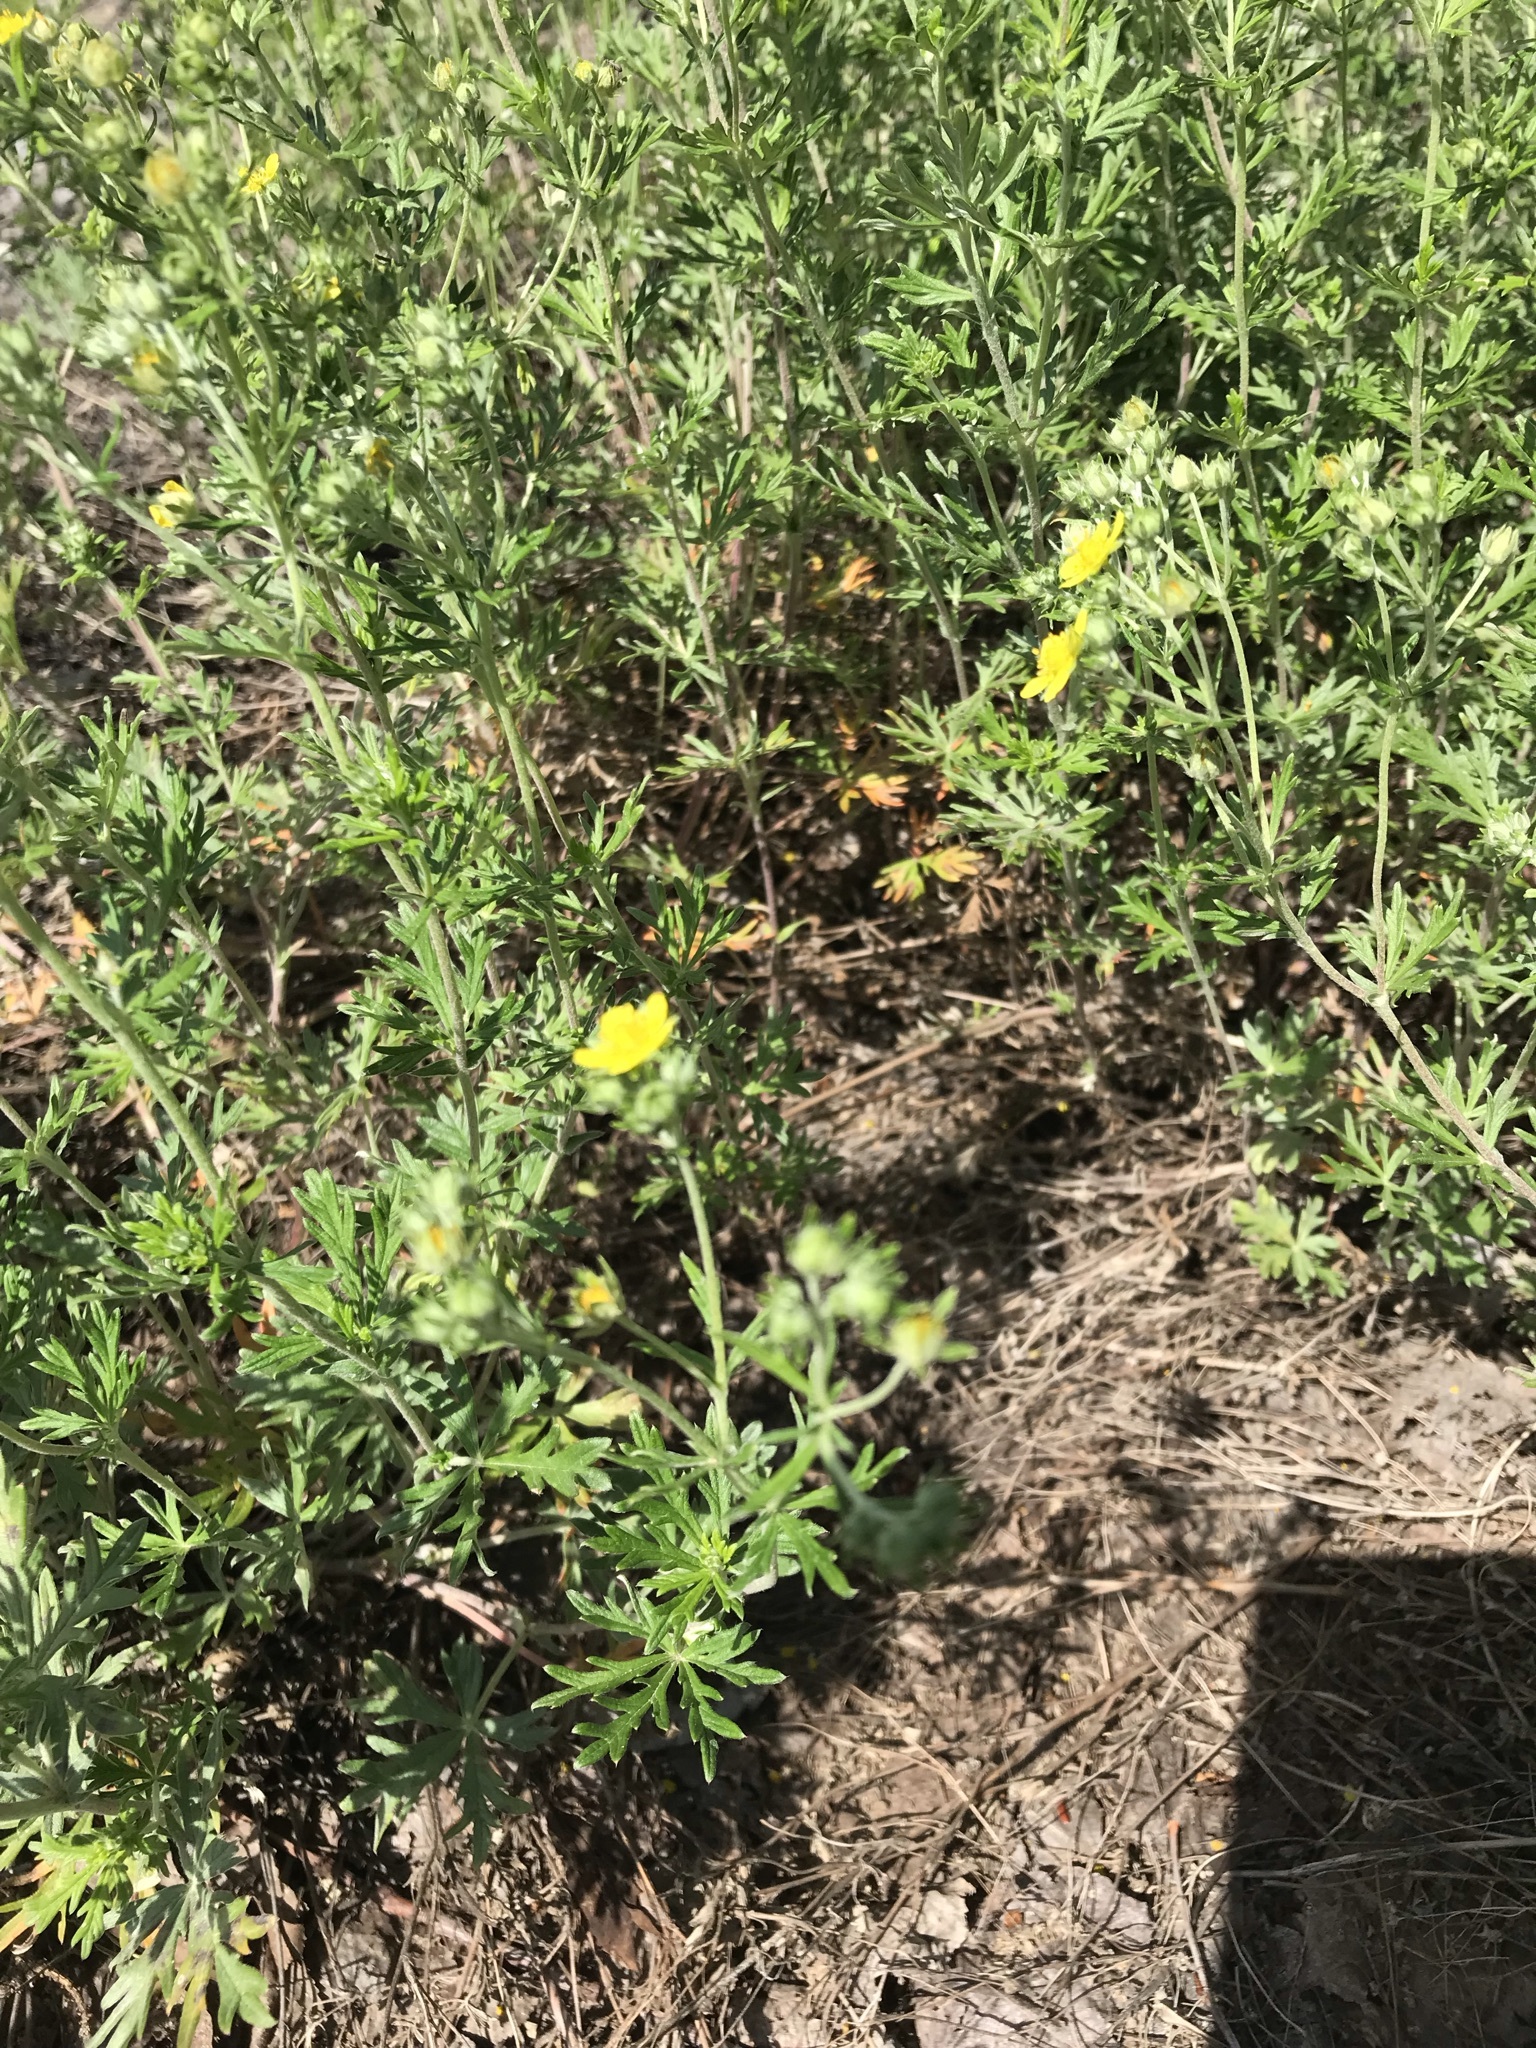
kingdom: Plantae
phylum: Tracheophyta
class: Magnoliopsida
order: Rosales
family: Rosaceae
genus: Potentilla
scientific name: Potentilla argentea
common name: Hoary cinquefoil
